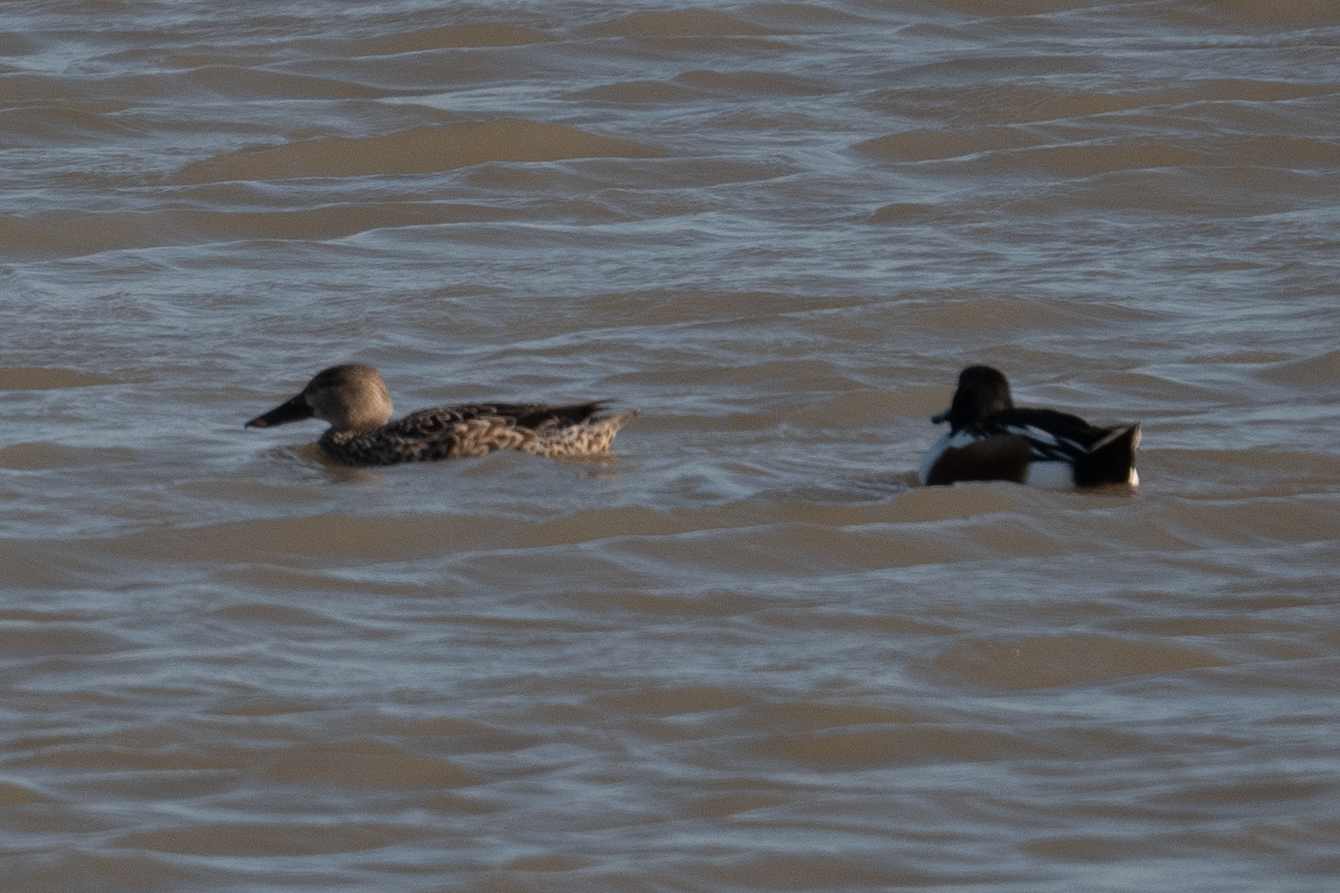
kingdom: Animalia
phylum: Chordata
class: Aves
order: Anseriformes
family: Anatidae
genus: Spatula
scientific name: Spatula clypeata
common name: Northern shoveler
